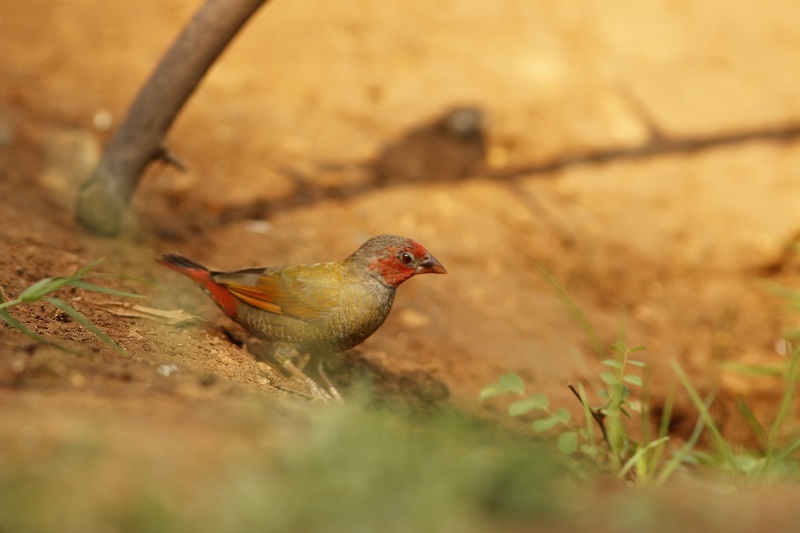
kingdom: Animalia
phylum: Chordata
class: Aves
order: Passeriformes
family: Estrildidae
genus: Pytilia
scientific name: Pytilia afra
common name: Orange-winged pytilia
